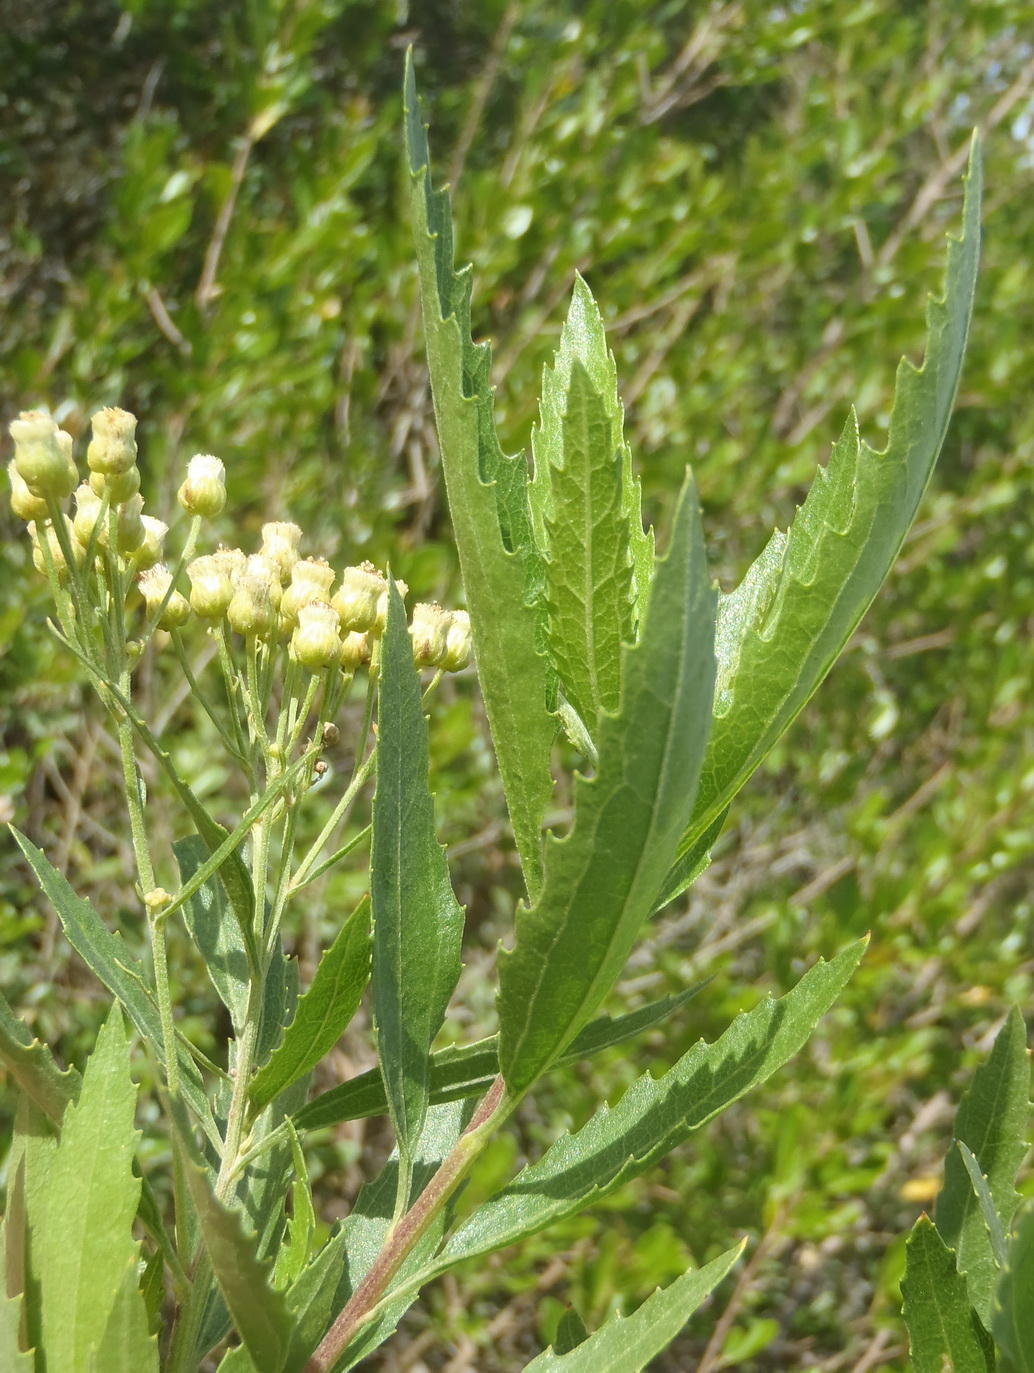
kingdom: Plantae
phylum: Tracheophyta
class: Magnoliopsida
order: Asterales
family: Asteraceae
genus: Nidorella
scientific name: Nidorella ivifolia
